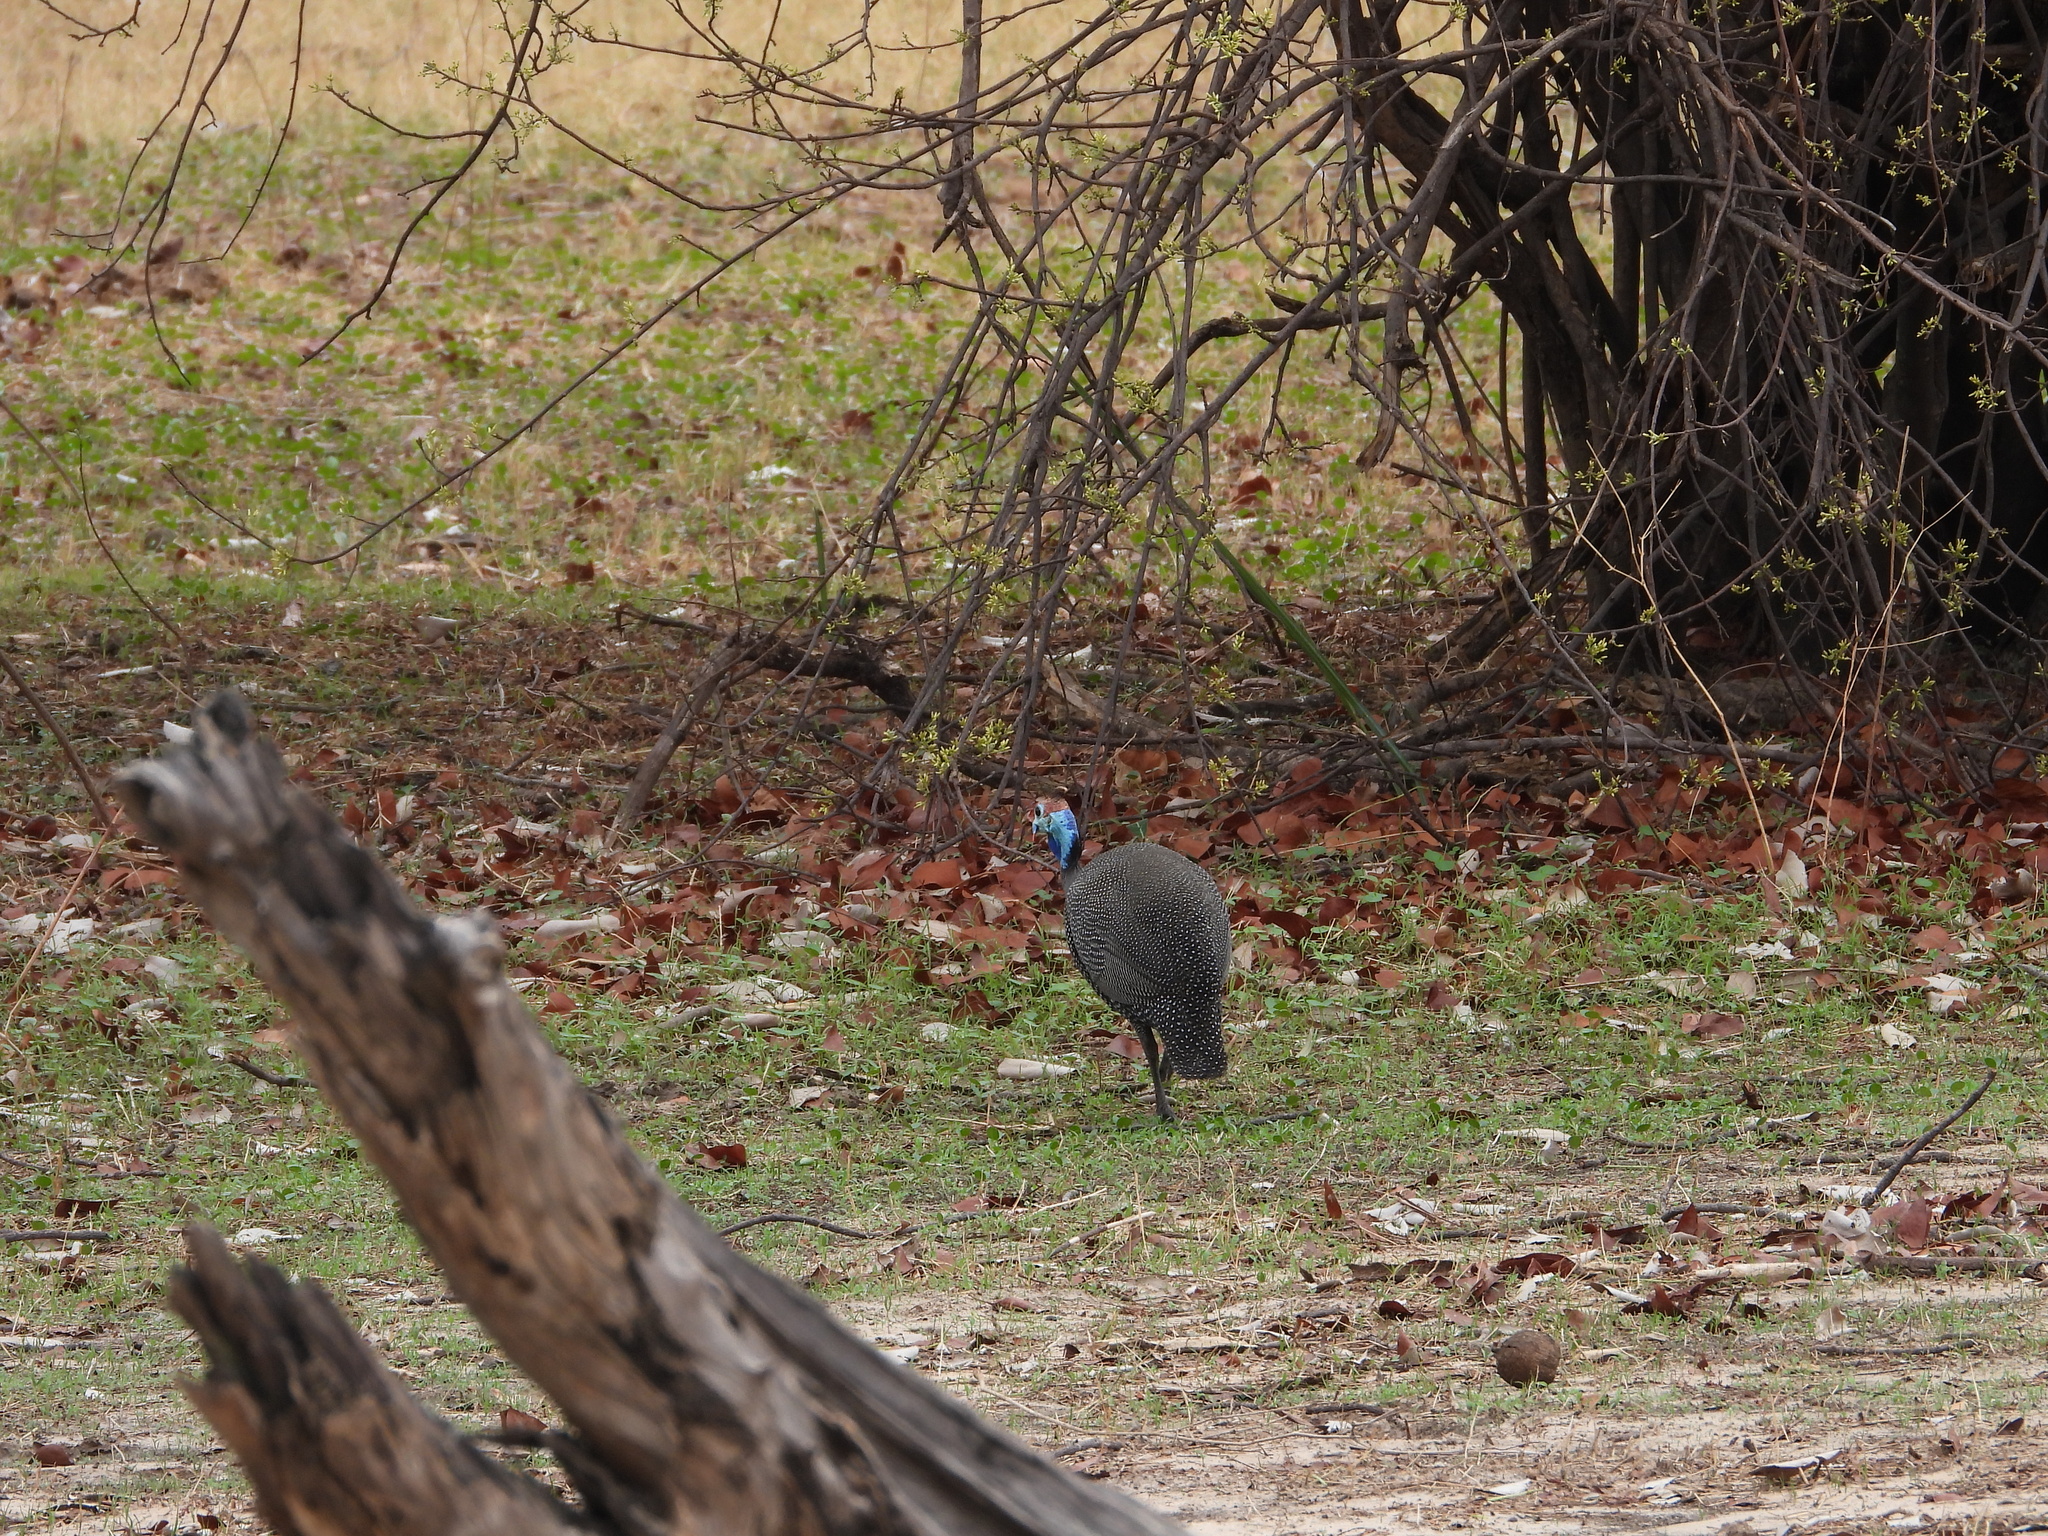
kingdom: Animalia
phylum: Chordata
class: Aves
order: Galliformes
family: Numididae
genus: Numida
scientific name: Numida meleagris
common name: Helmeted guineafowl
